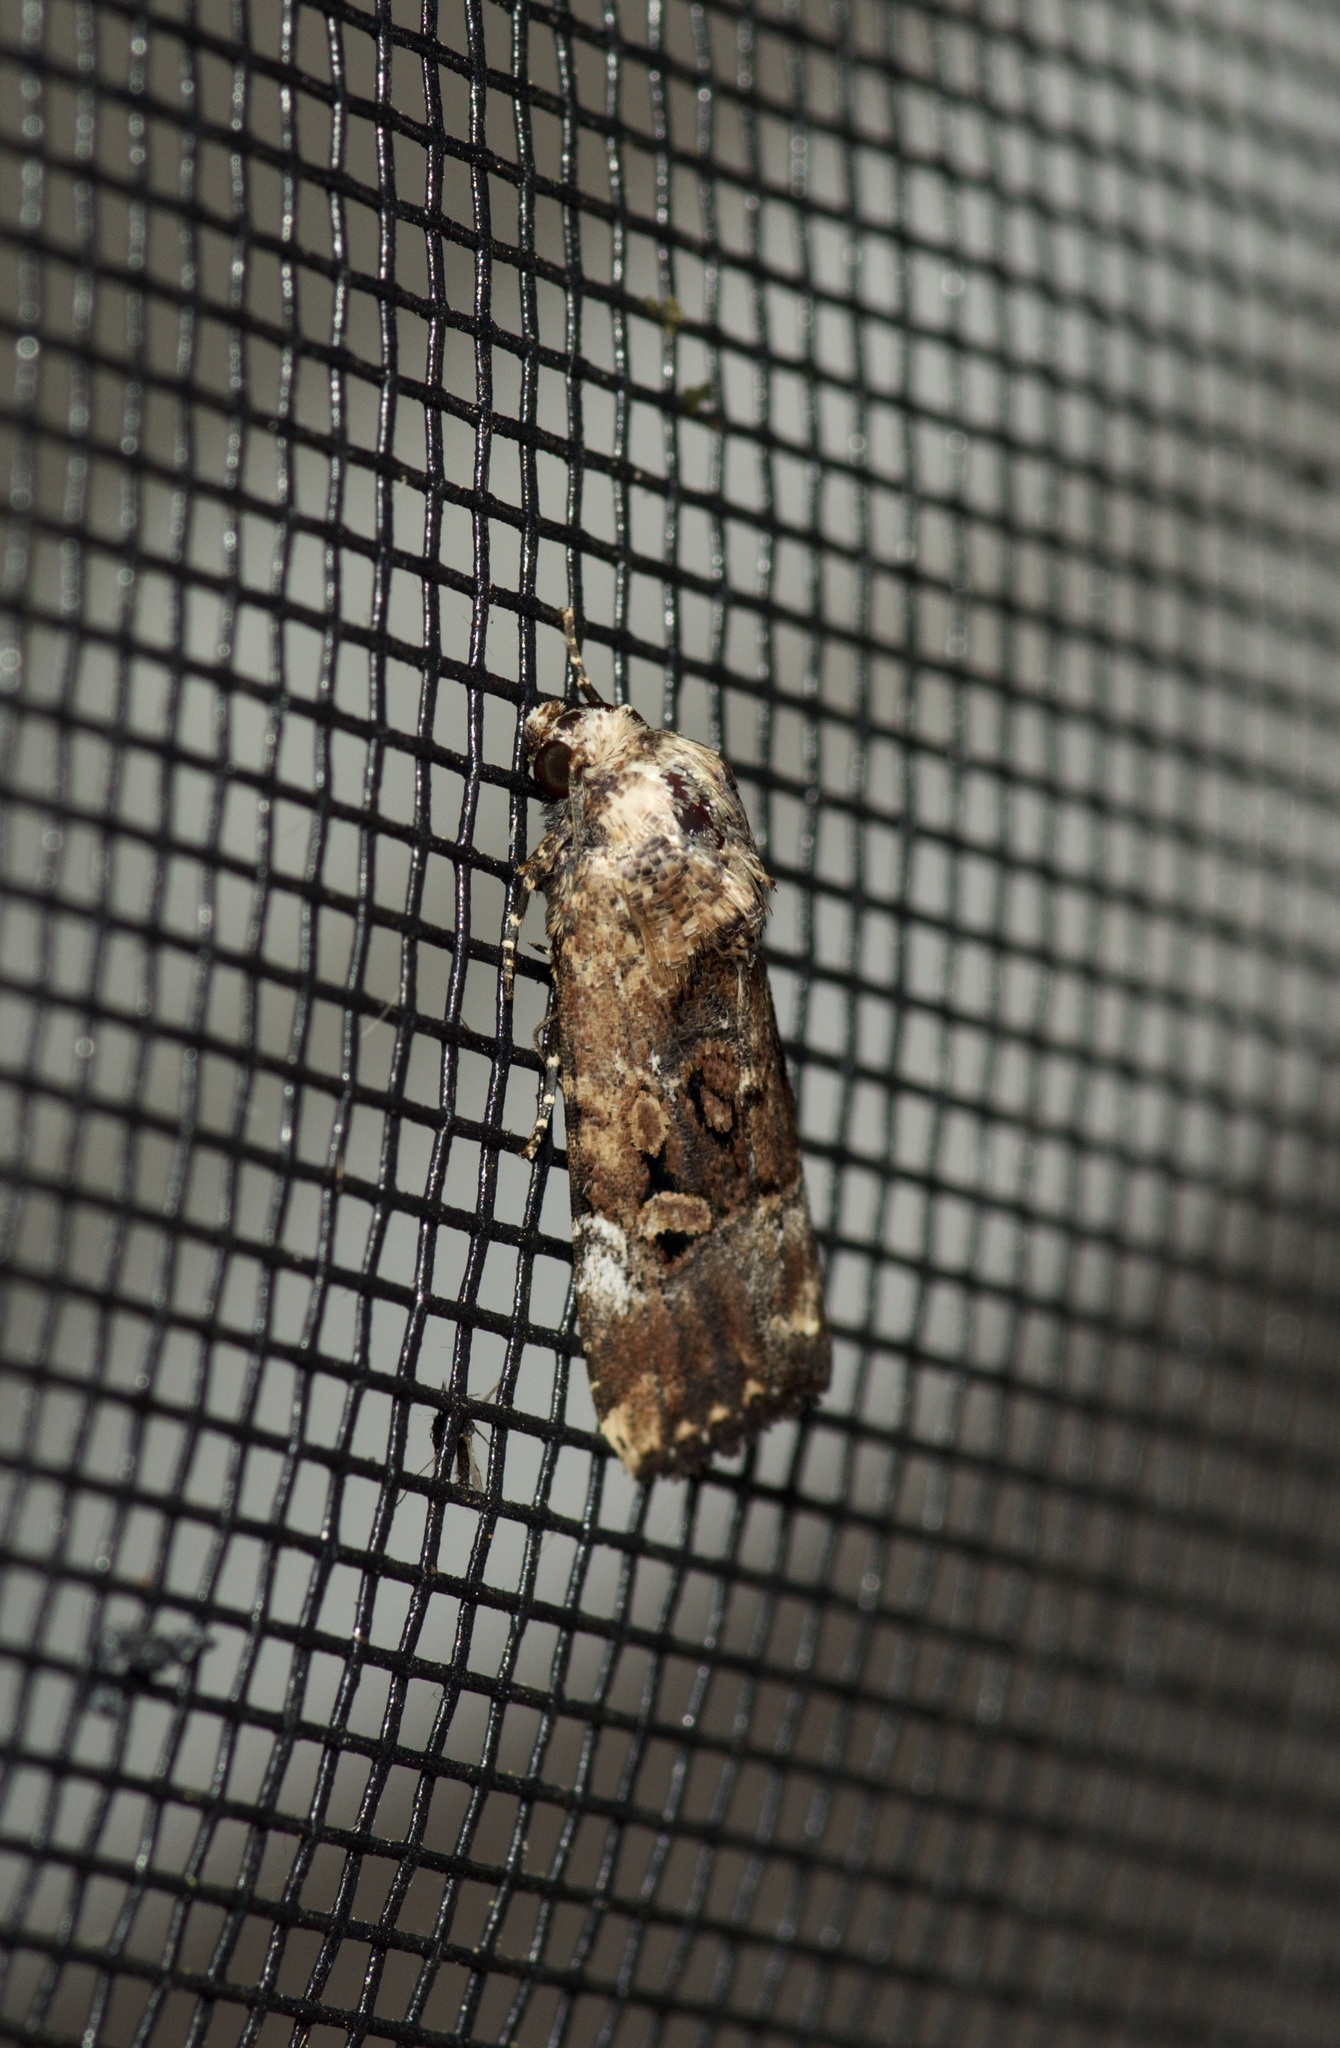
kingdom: Animalia
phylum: Arthropoda
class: Insecta
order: Lepidoptera
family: Noctuidae
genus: Elaphria
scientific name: Elaphria chalcedonia
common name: Chalcedony midget
